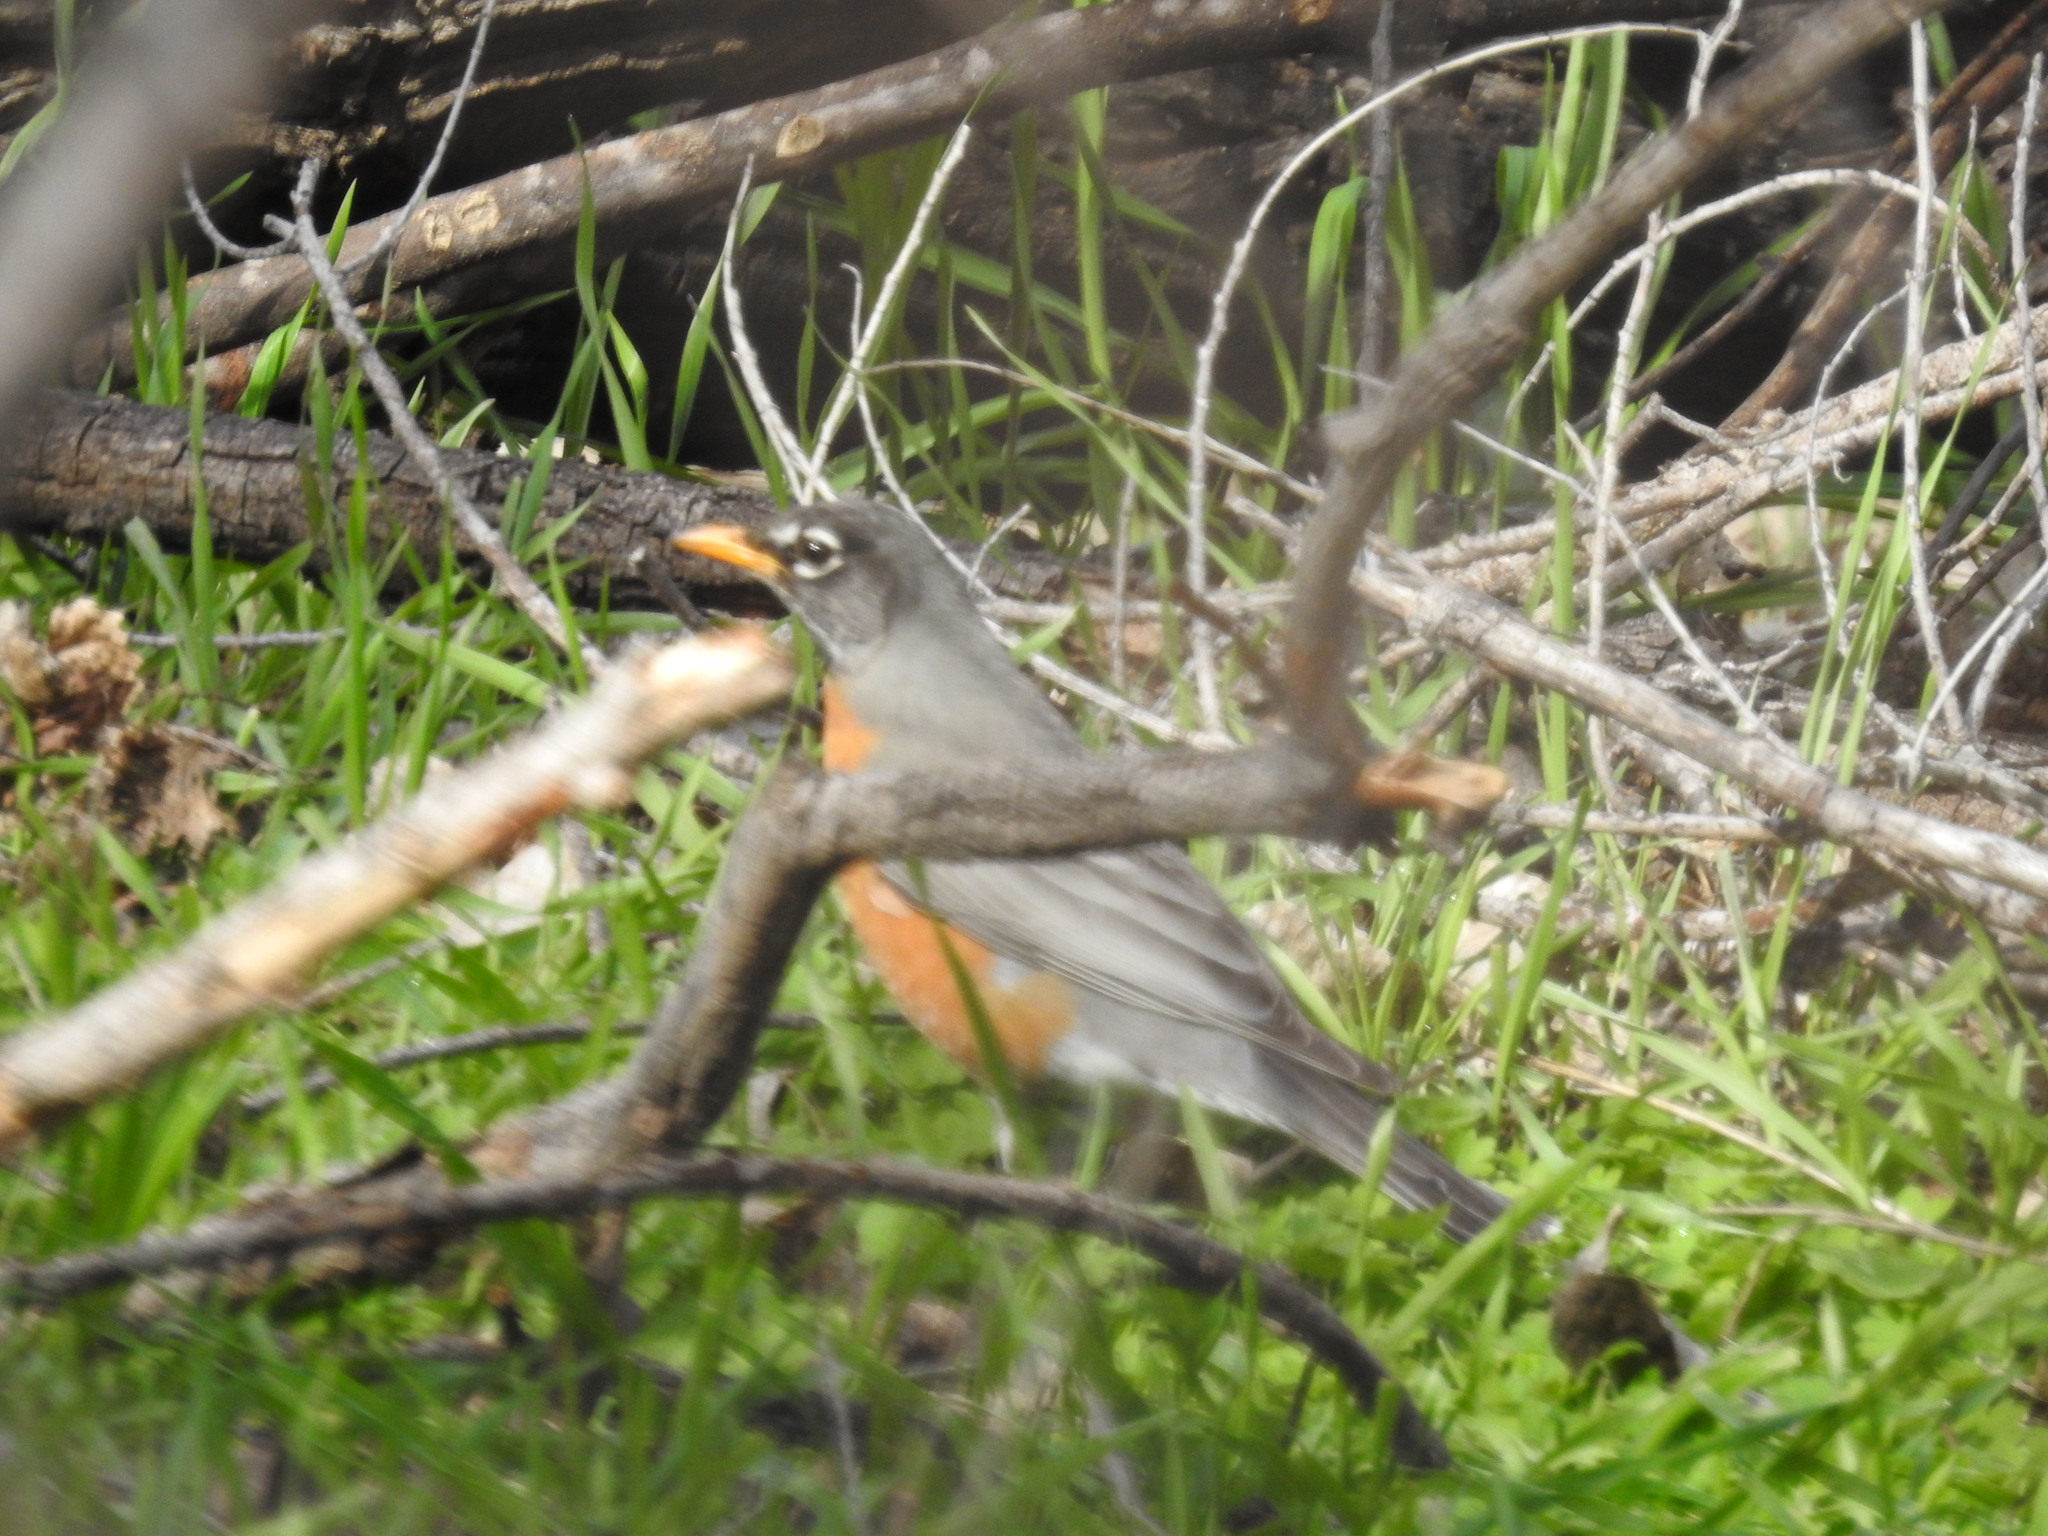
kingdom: Animalia
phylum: Chordata
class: Aves
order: Passeriformes
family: Turdidae
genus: Turdus
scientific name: Turdus migratorius
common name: American robin
